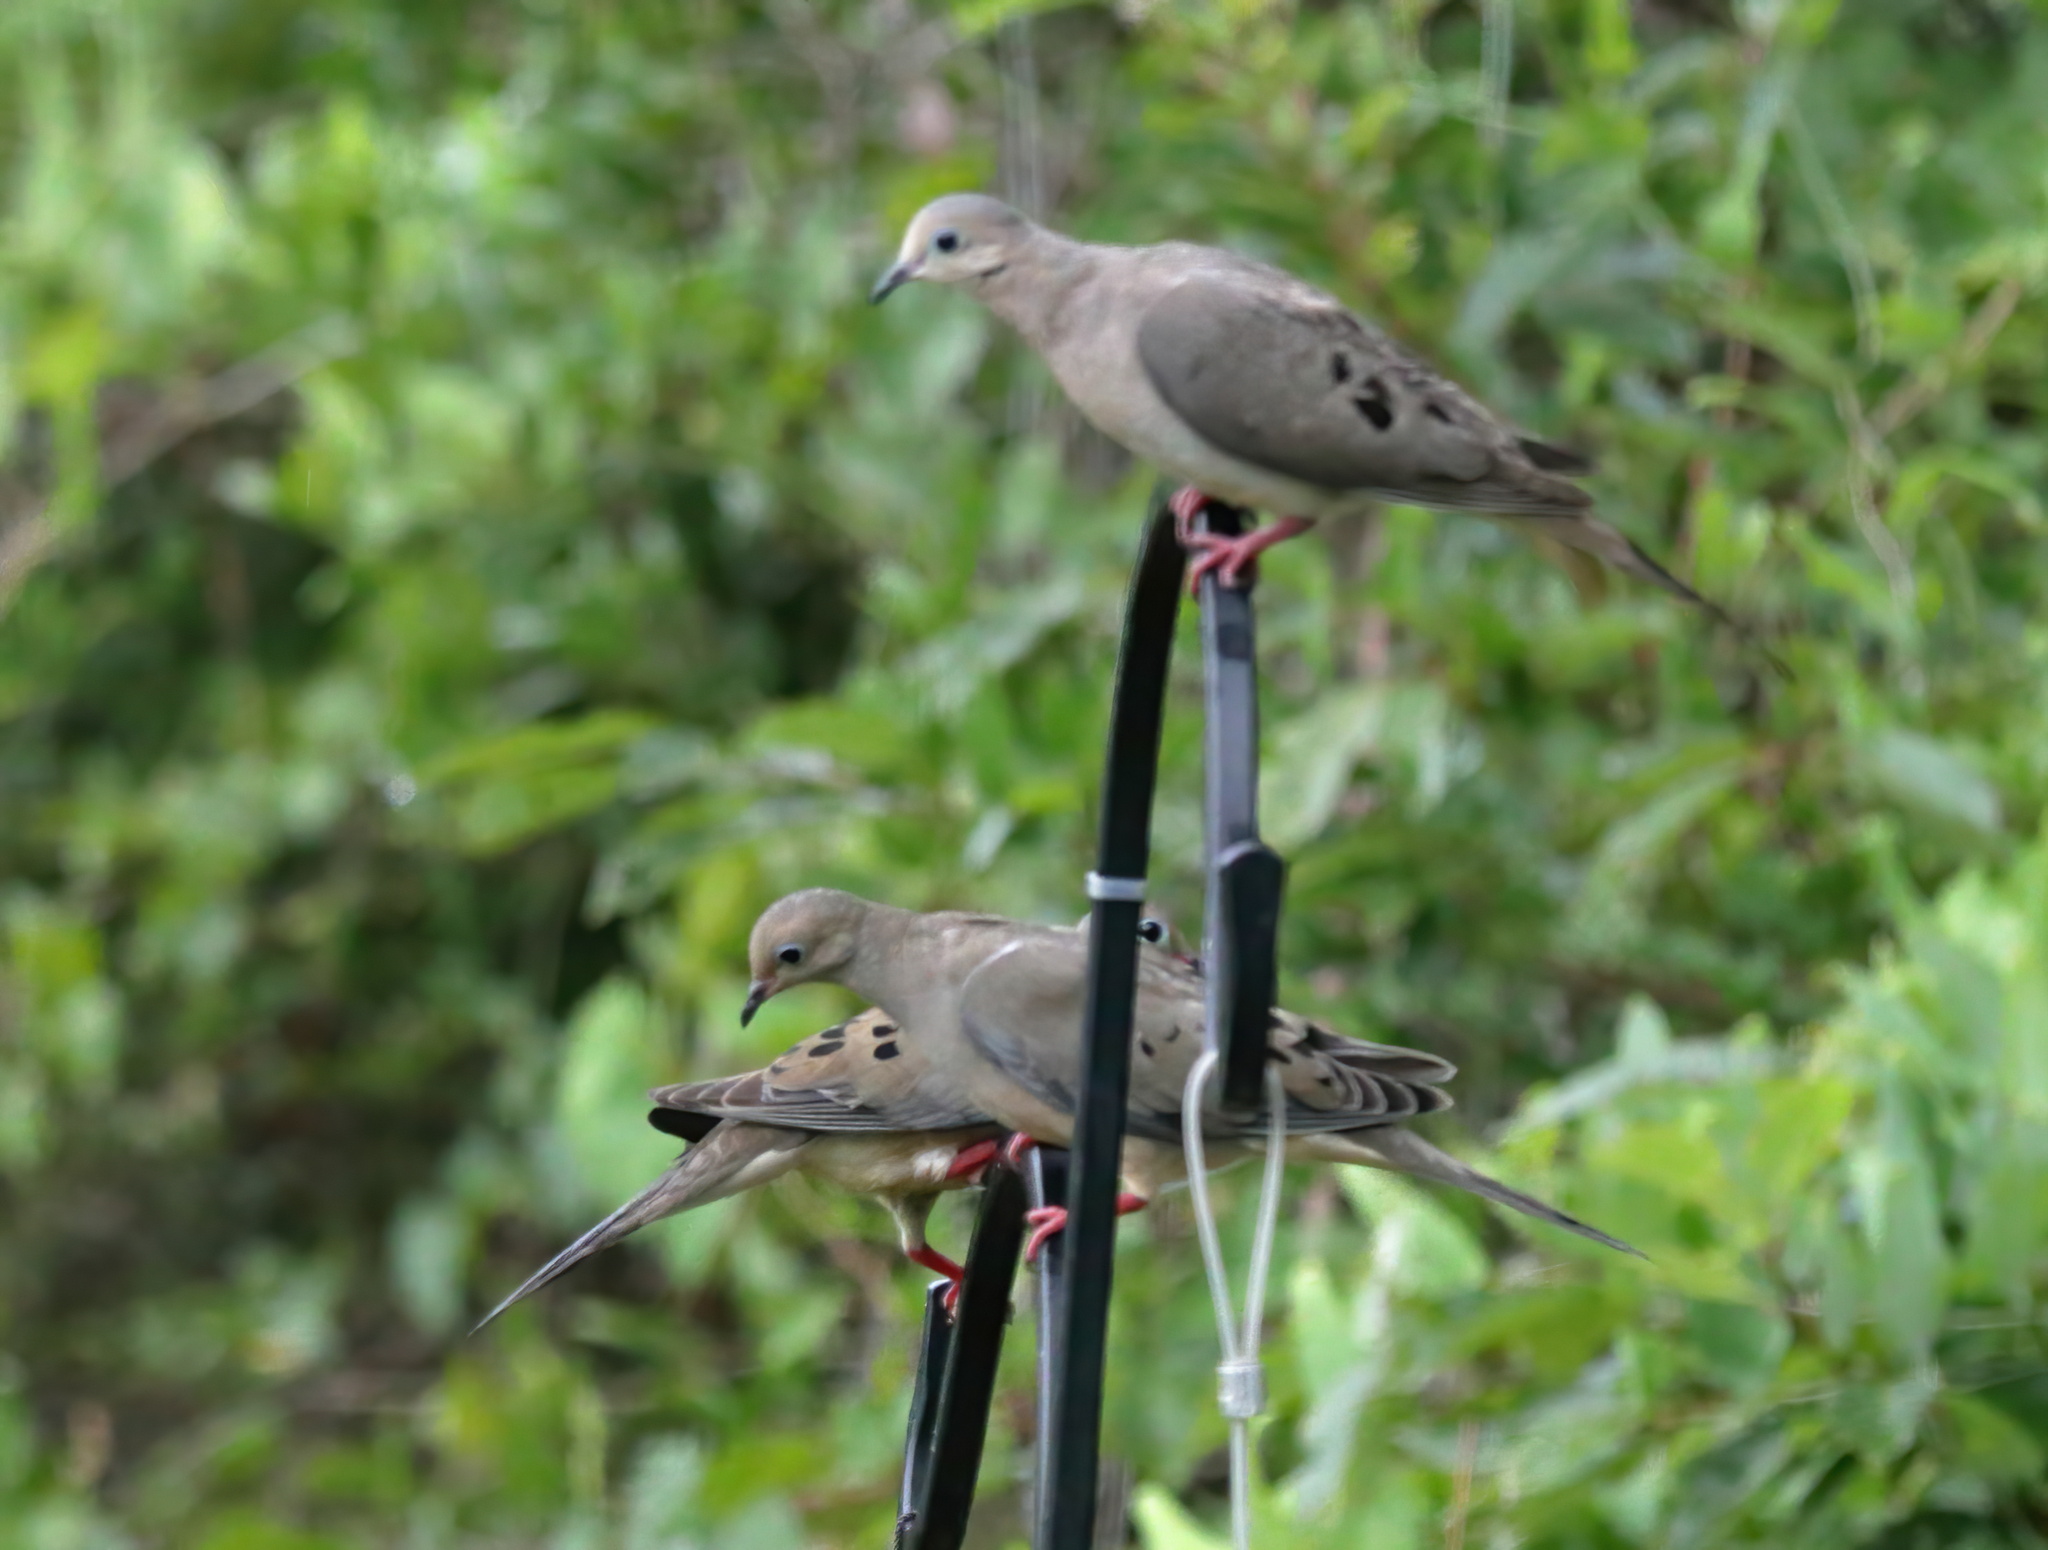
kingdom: Animalia
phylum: Chordata
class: Aves
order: Columbiformes
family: Columbidae
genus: Zenaida
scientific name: Zenaida macroura
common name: Mourning dove
